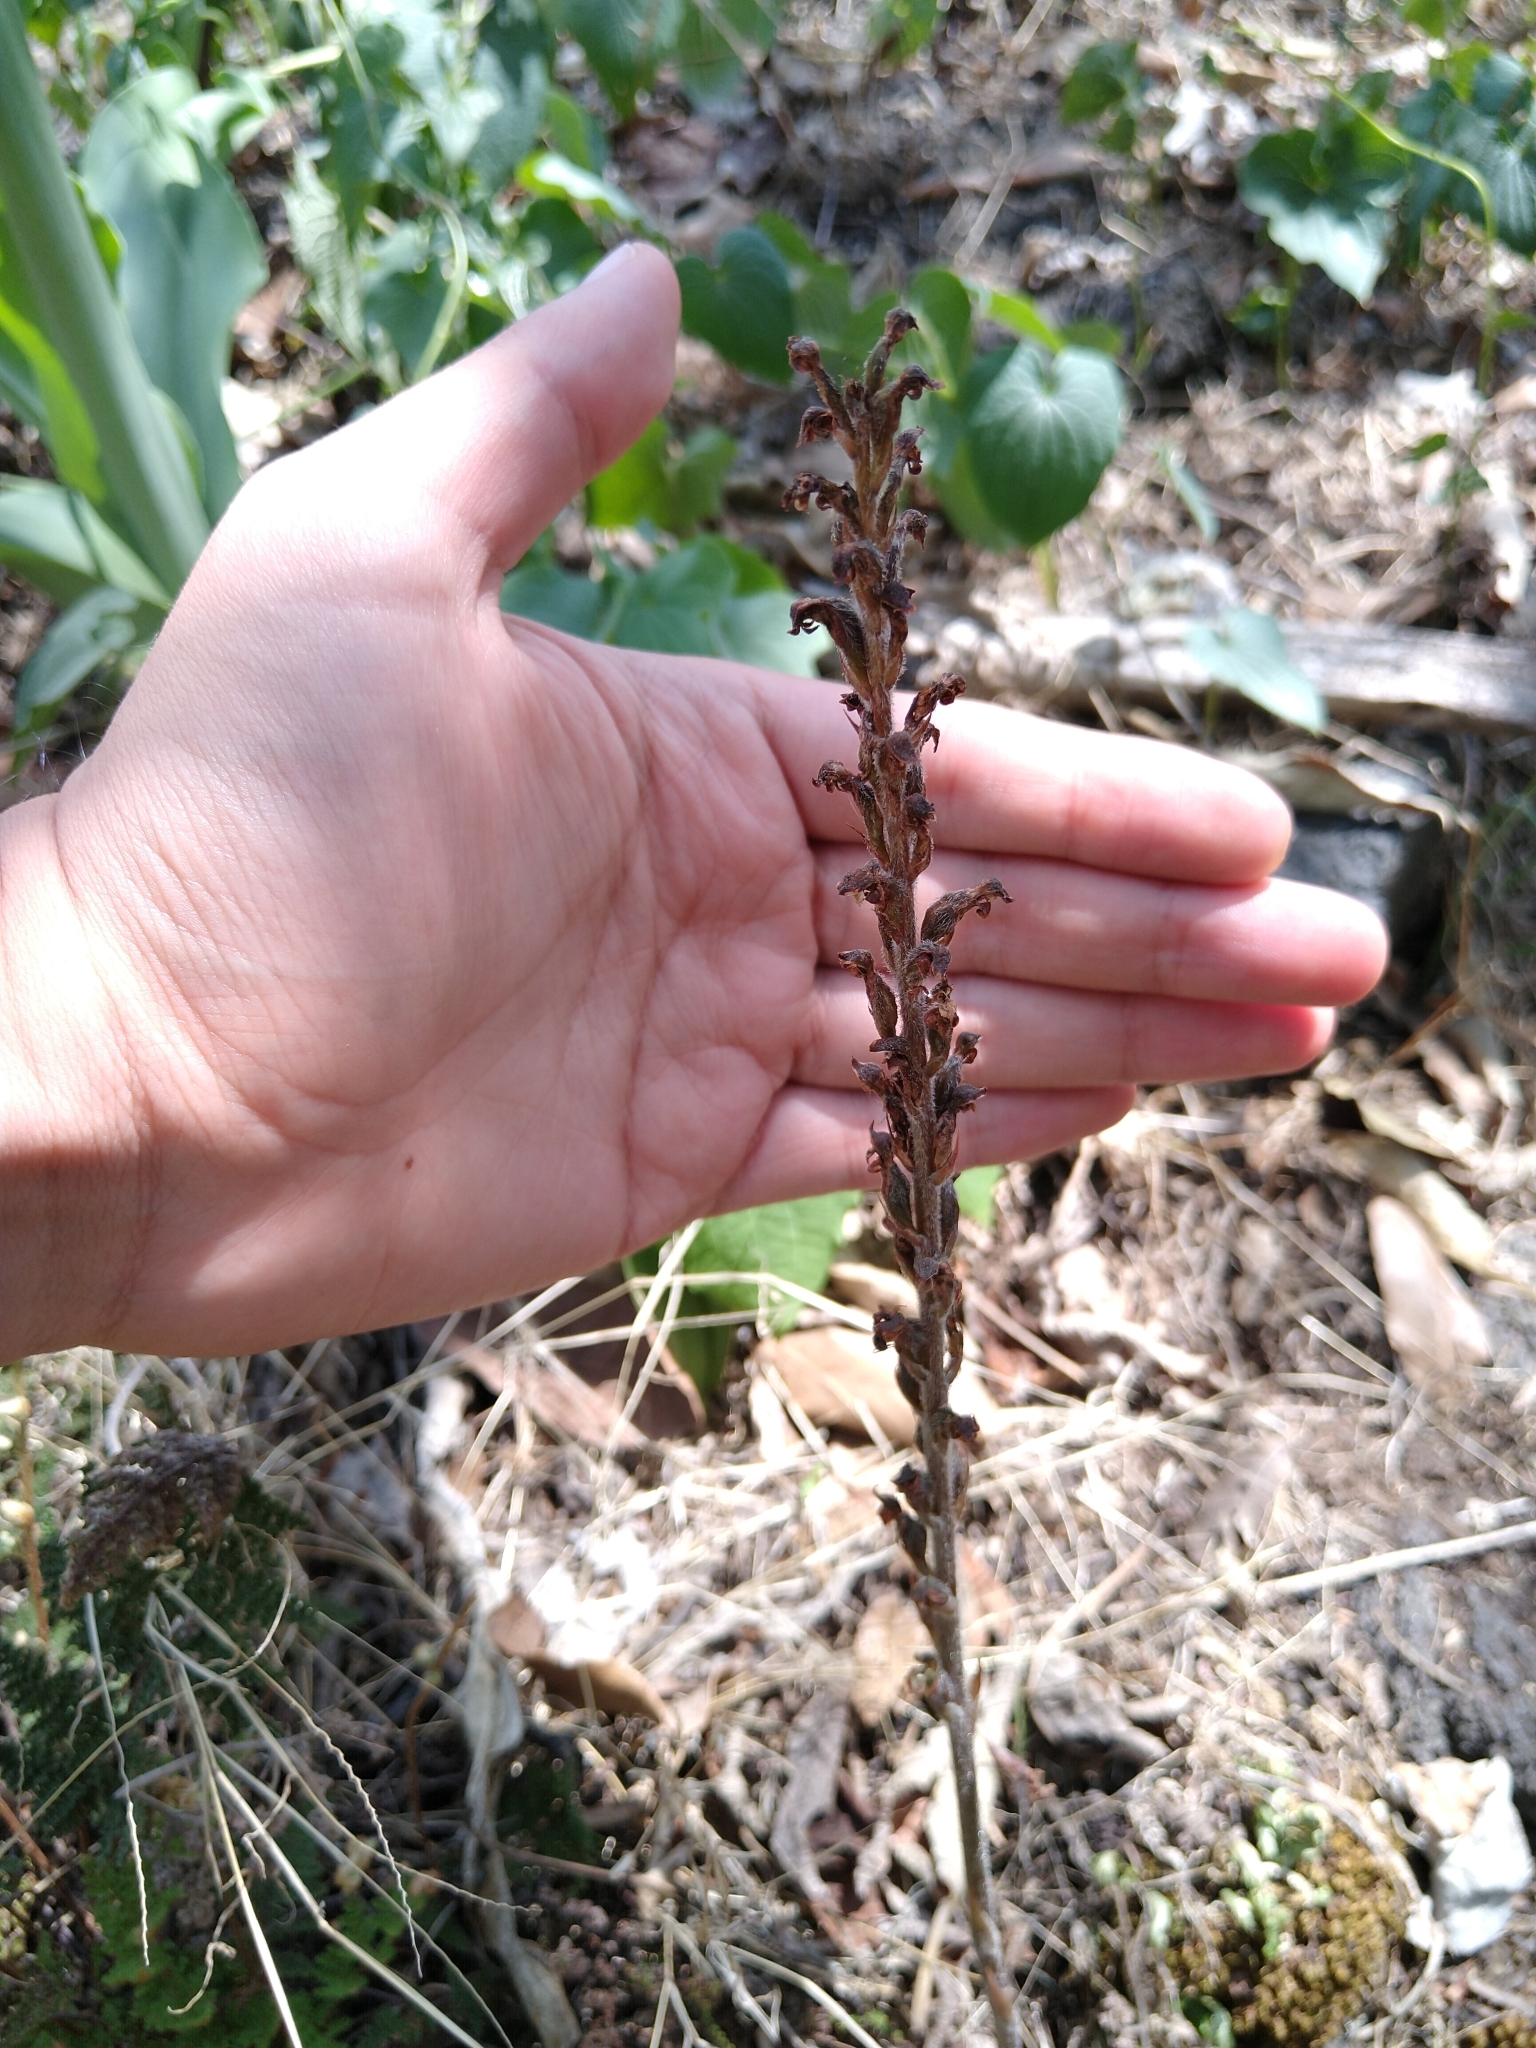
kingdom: Plantae
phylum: Tracheophyta
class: Liliopsida
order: Asparagales
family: Orchidaceae
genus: Sarcoglottis
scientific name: Sarcoglottis schaffneri
